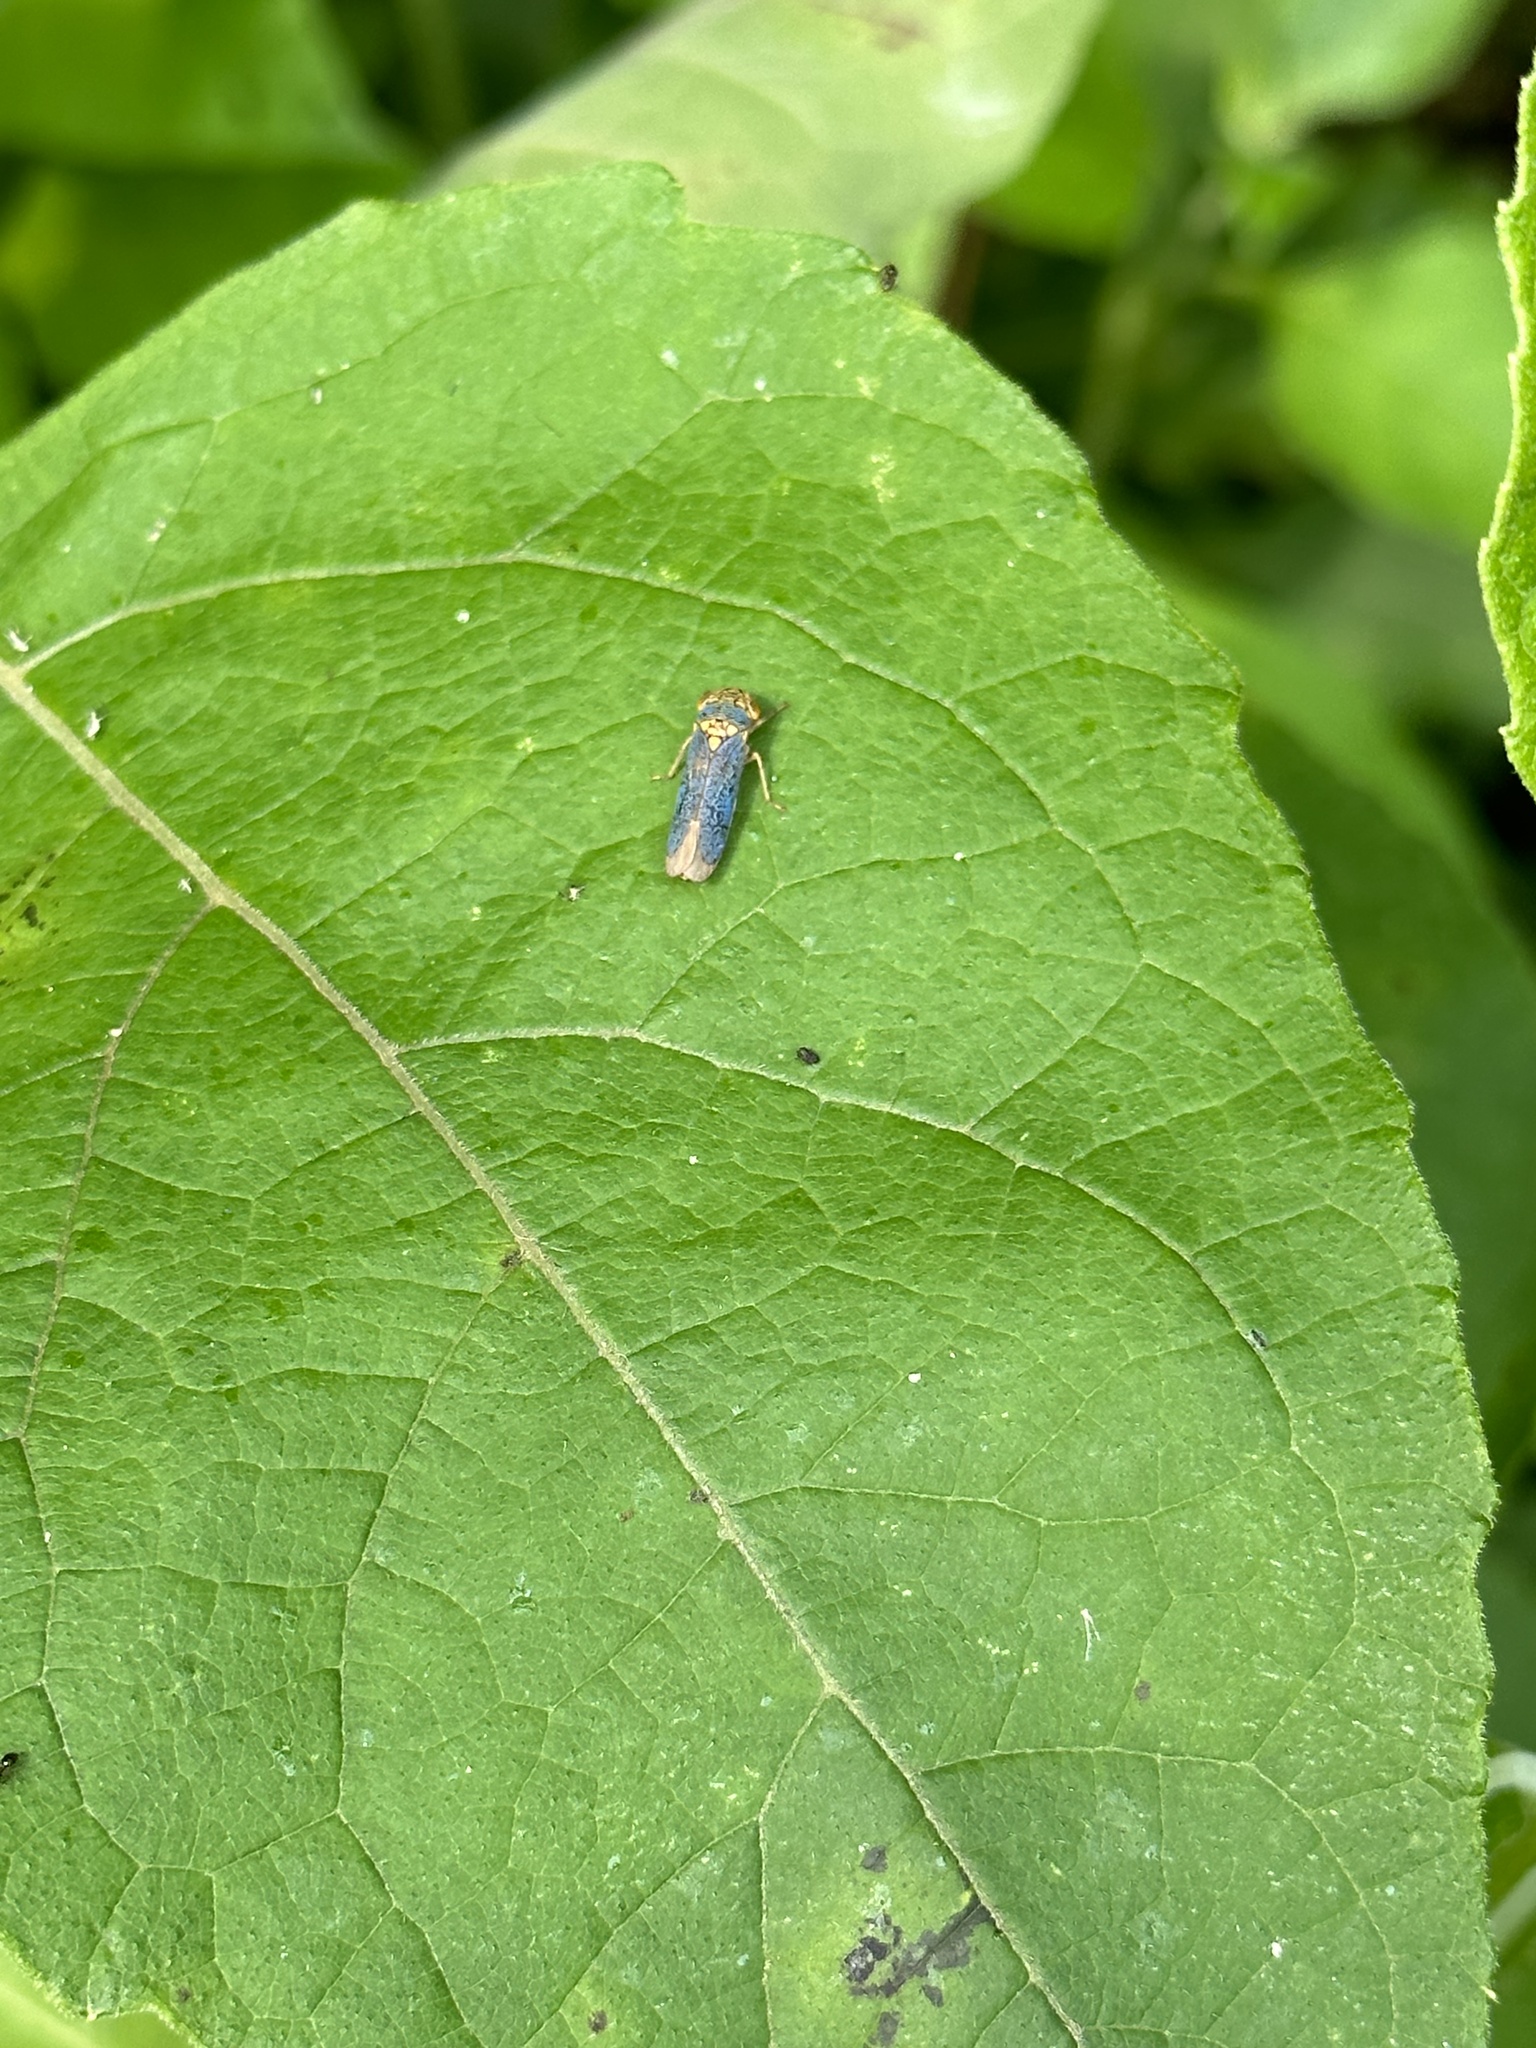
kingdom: Animalia
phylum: Arthropoda
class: Insecta
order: Hemiptera
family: Cicadellidae
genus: Oncometopia
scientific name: Oncometopia orbona
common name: Broad-headed sharpshooter
